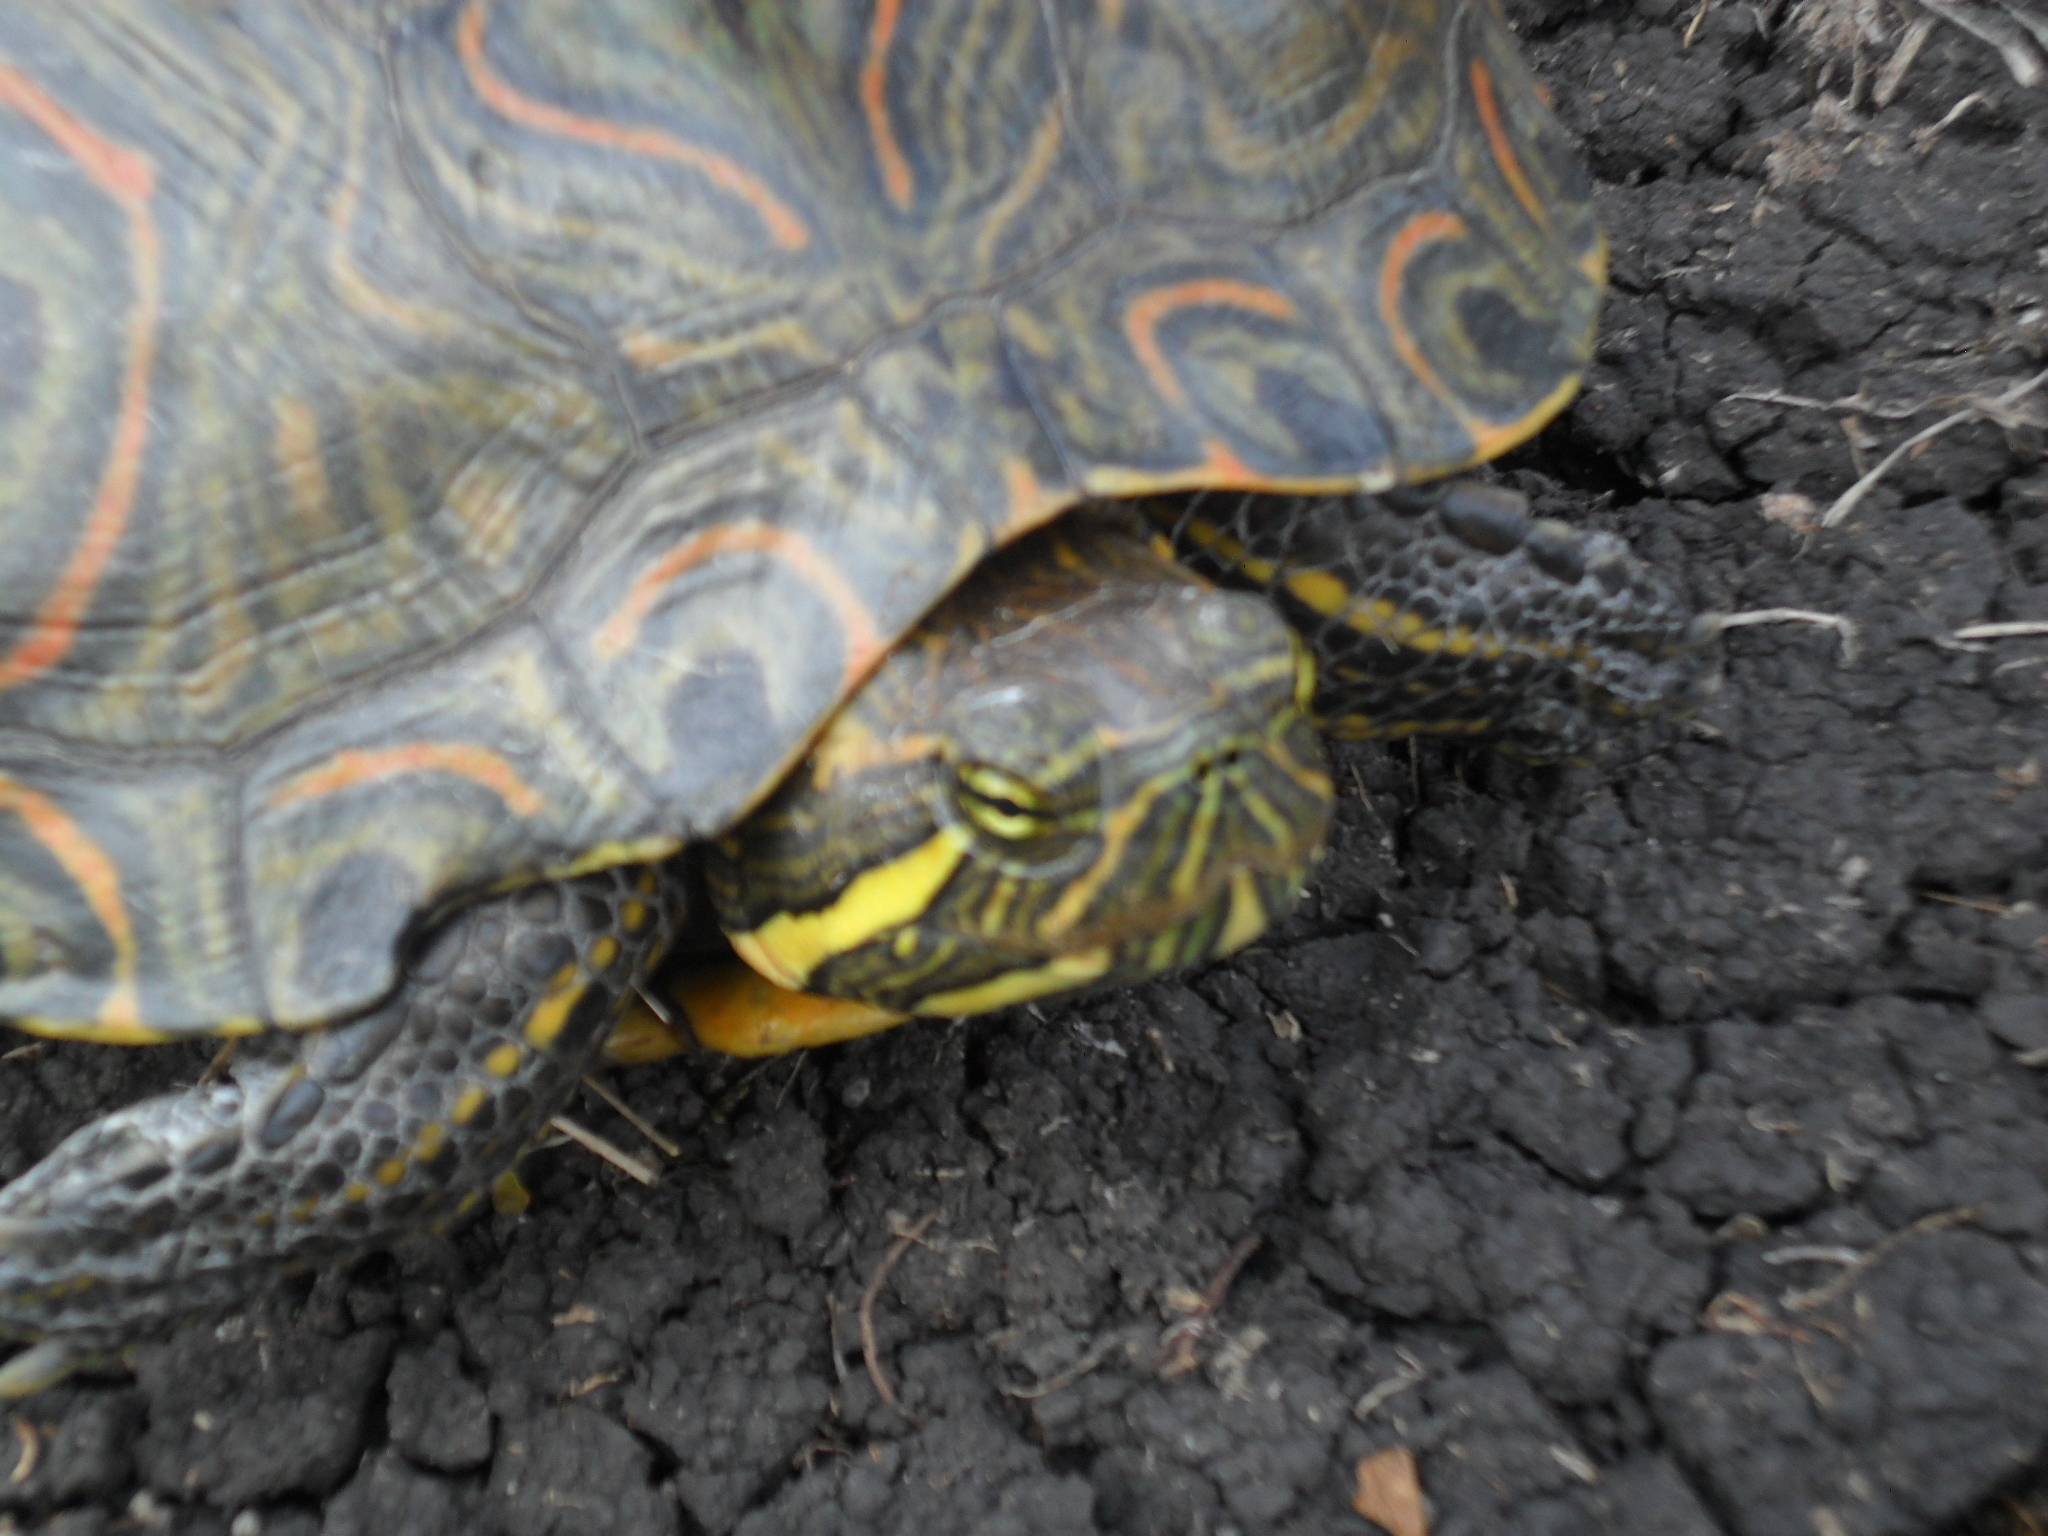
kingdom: Animalia
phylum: Chordata
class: Testudines
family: Emydidae
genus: Trachemys
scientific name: Trachemys venusta
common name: Mesoamerican slider
